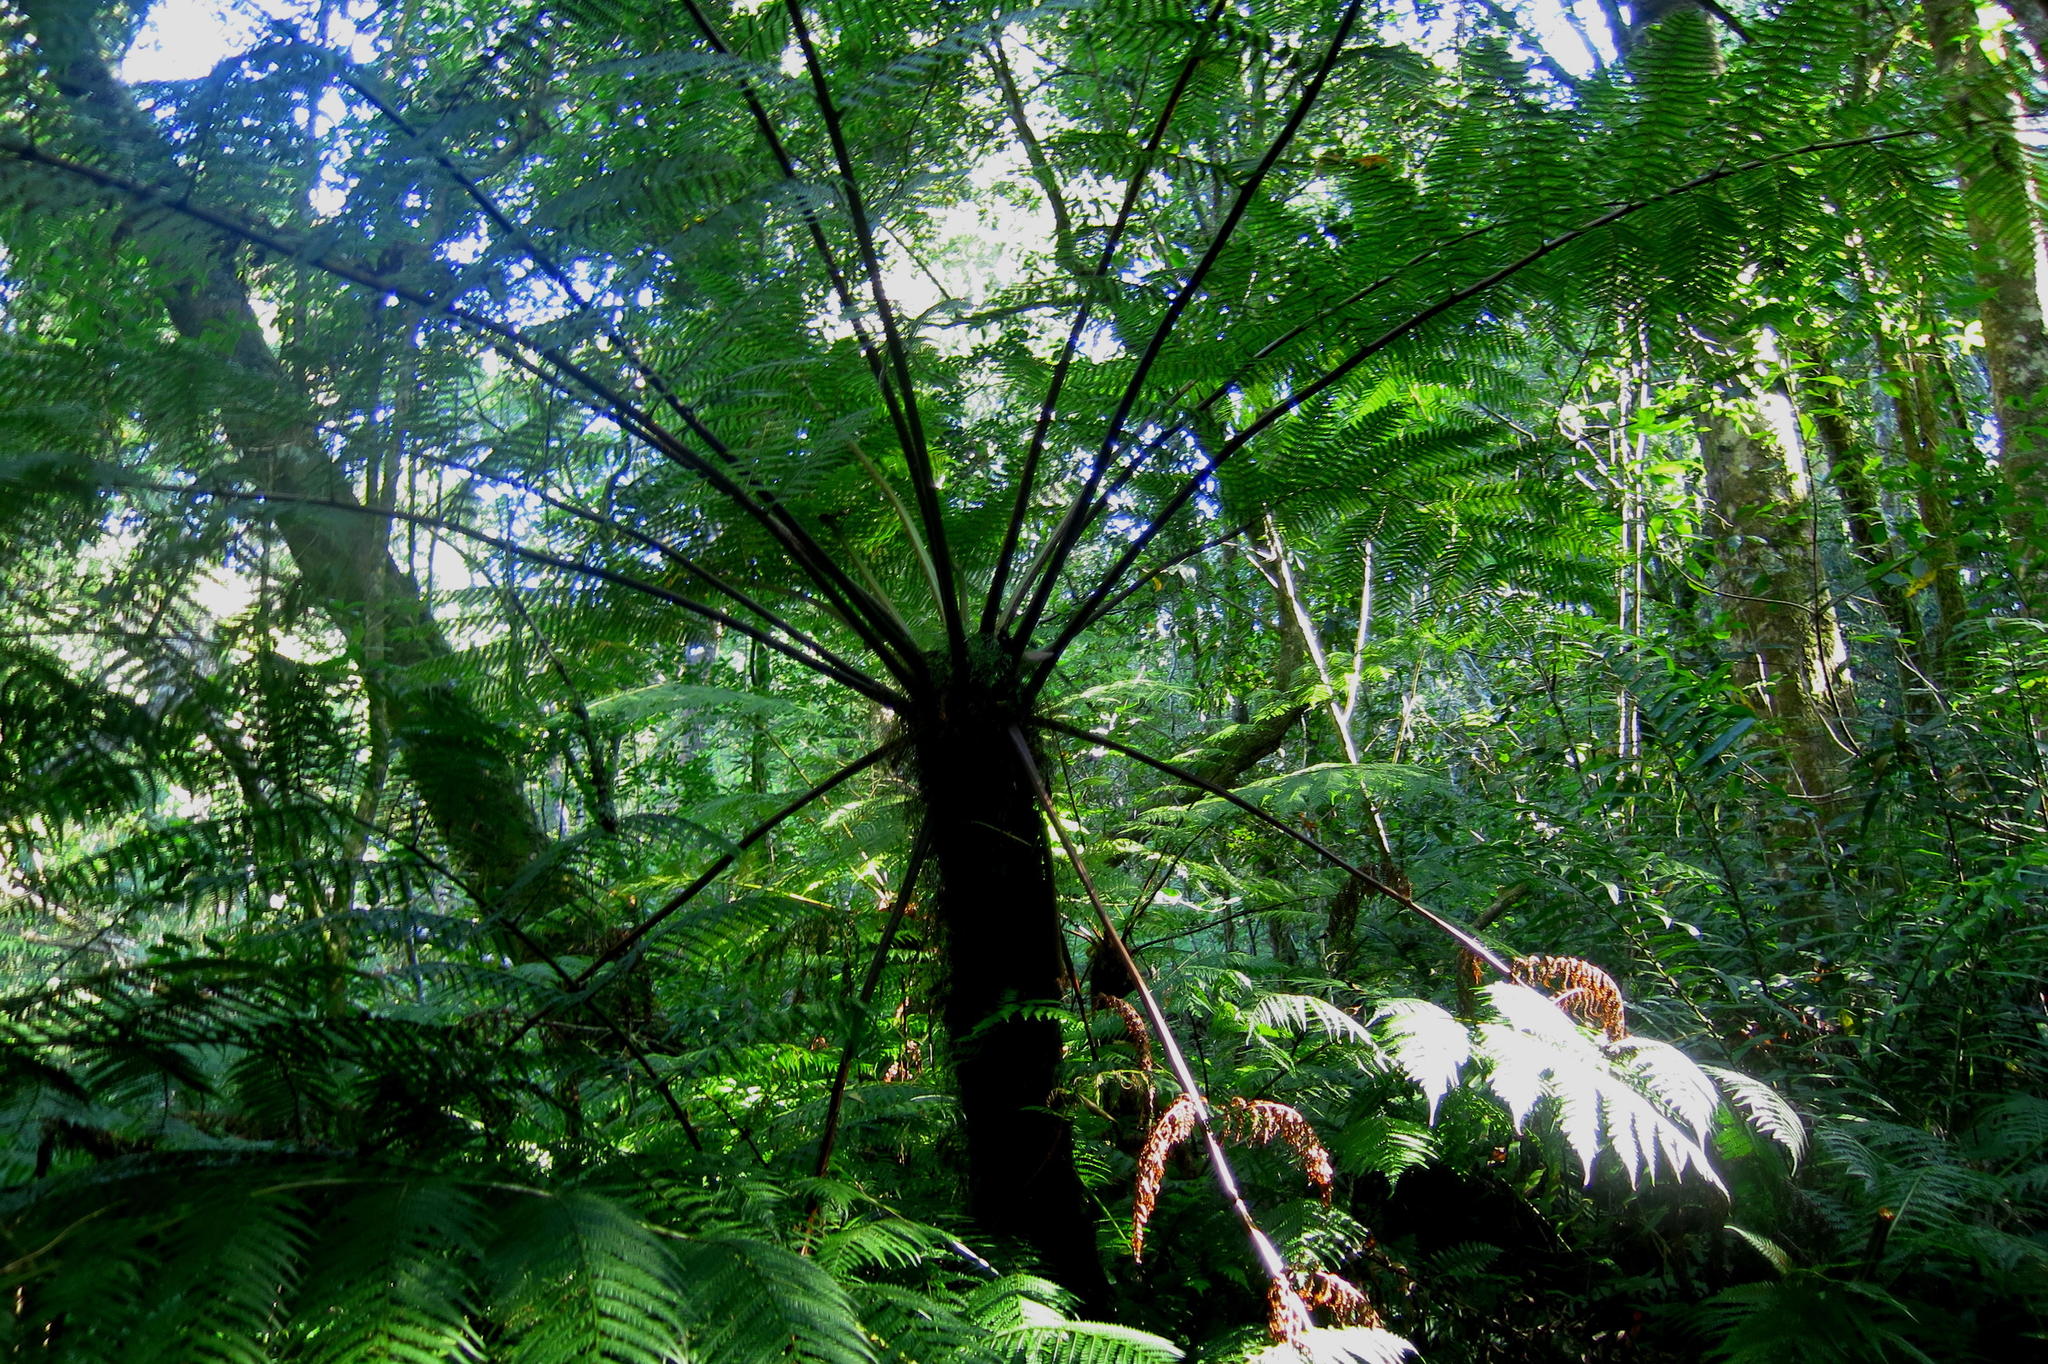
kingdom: Plantae
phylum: Tracheophyta
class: Polypodiopsida
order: Cyatheales
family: Cyatheaceae
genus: Gymnosphaera
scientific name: Gymnosphaera capensis
